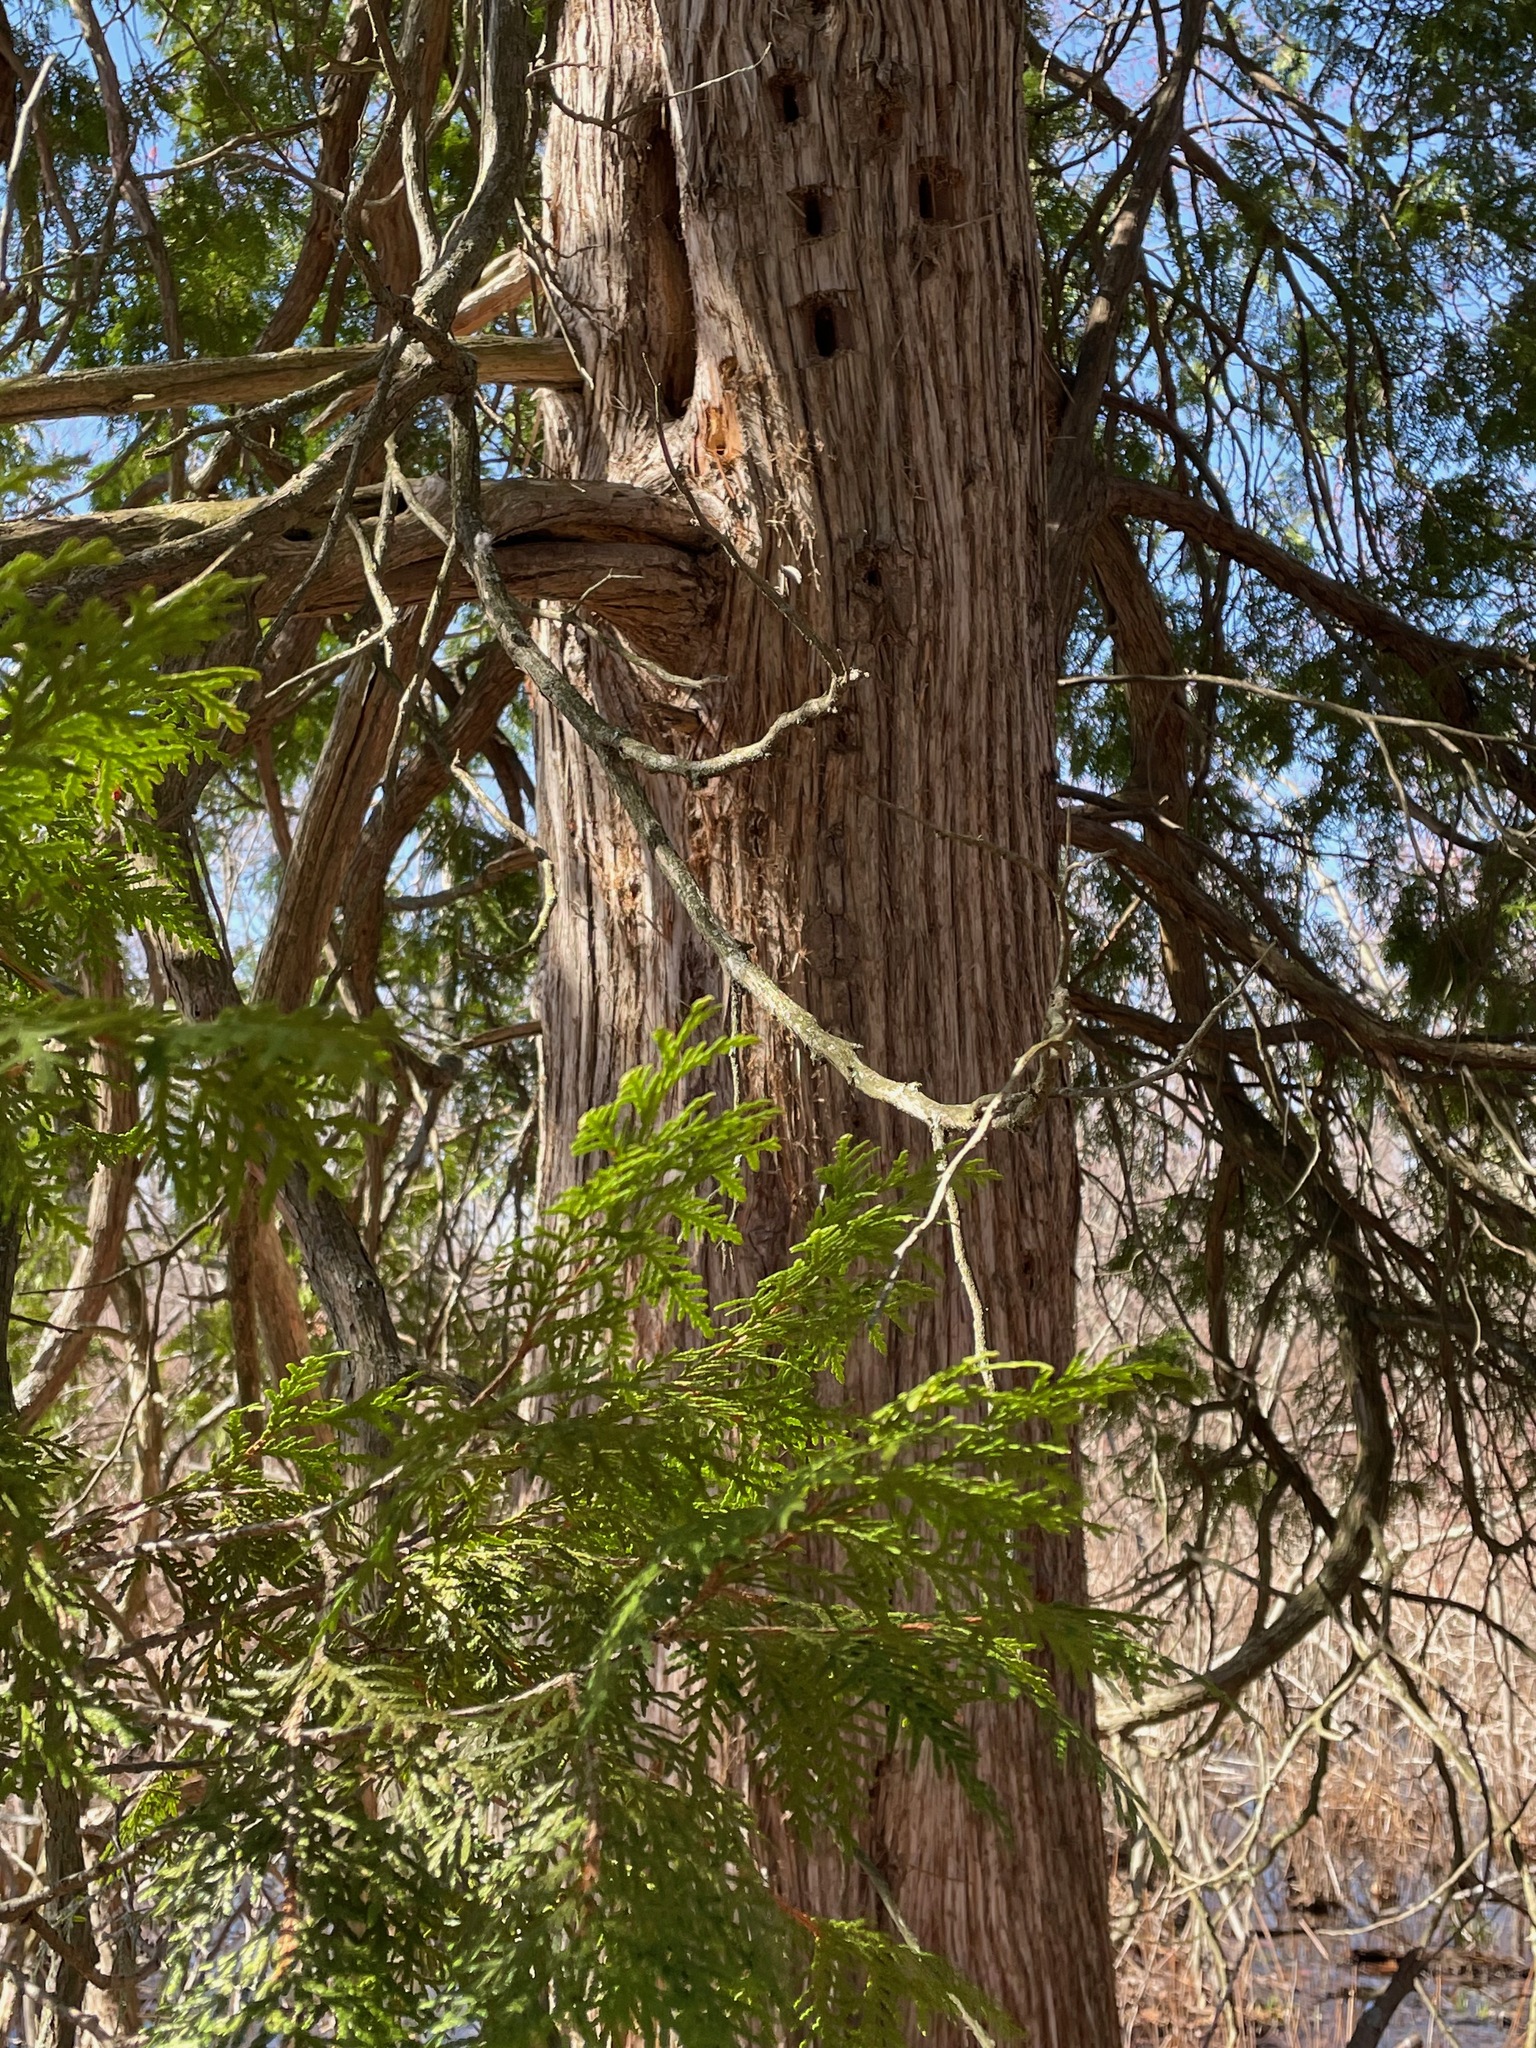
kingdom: Plantae
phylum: Tracheophyta
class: Pinopsida
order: Pinales
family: Cupressaceae
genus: Thuja
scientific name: Thuja occidentalis
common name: Northern white-cedar
